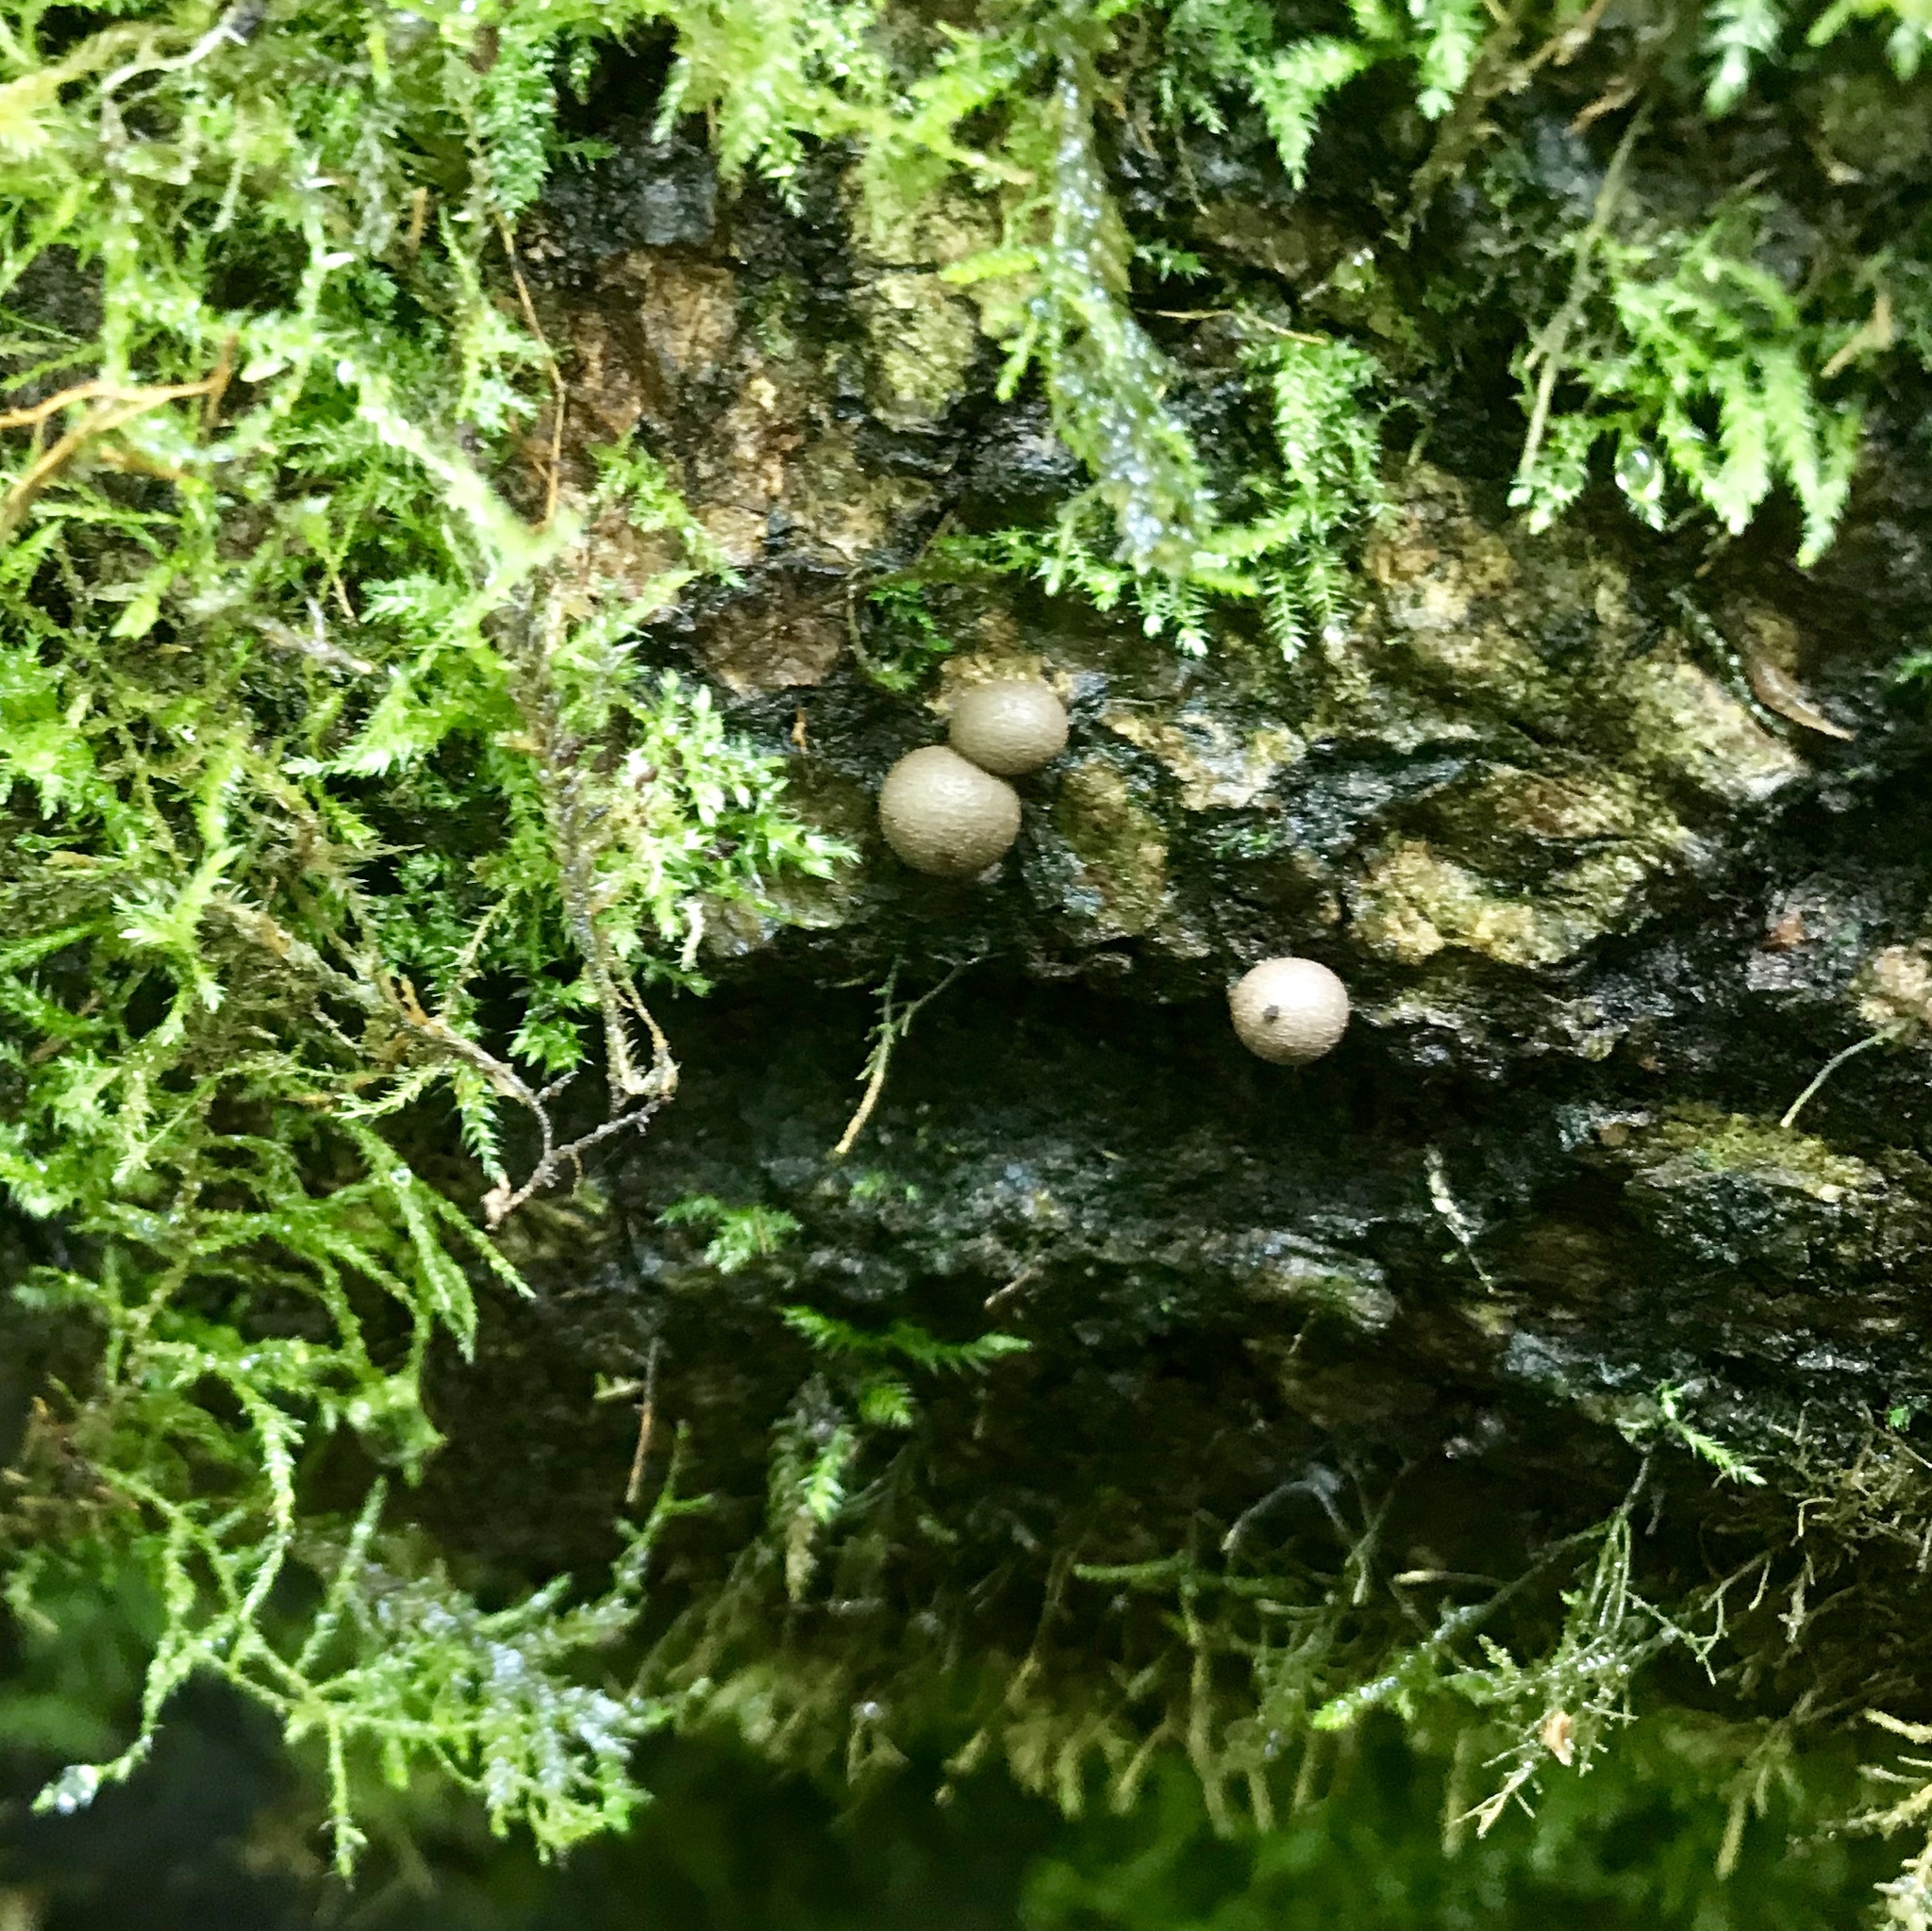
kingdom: Protozoa
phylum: Mycetozoa
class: Myxomycetes
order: Cribrariales
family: Tubiferaceae
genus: Lycogala
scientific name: Lycogala epidendrum
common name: Wolf's milk
